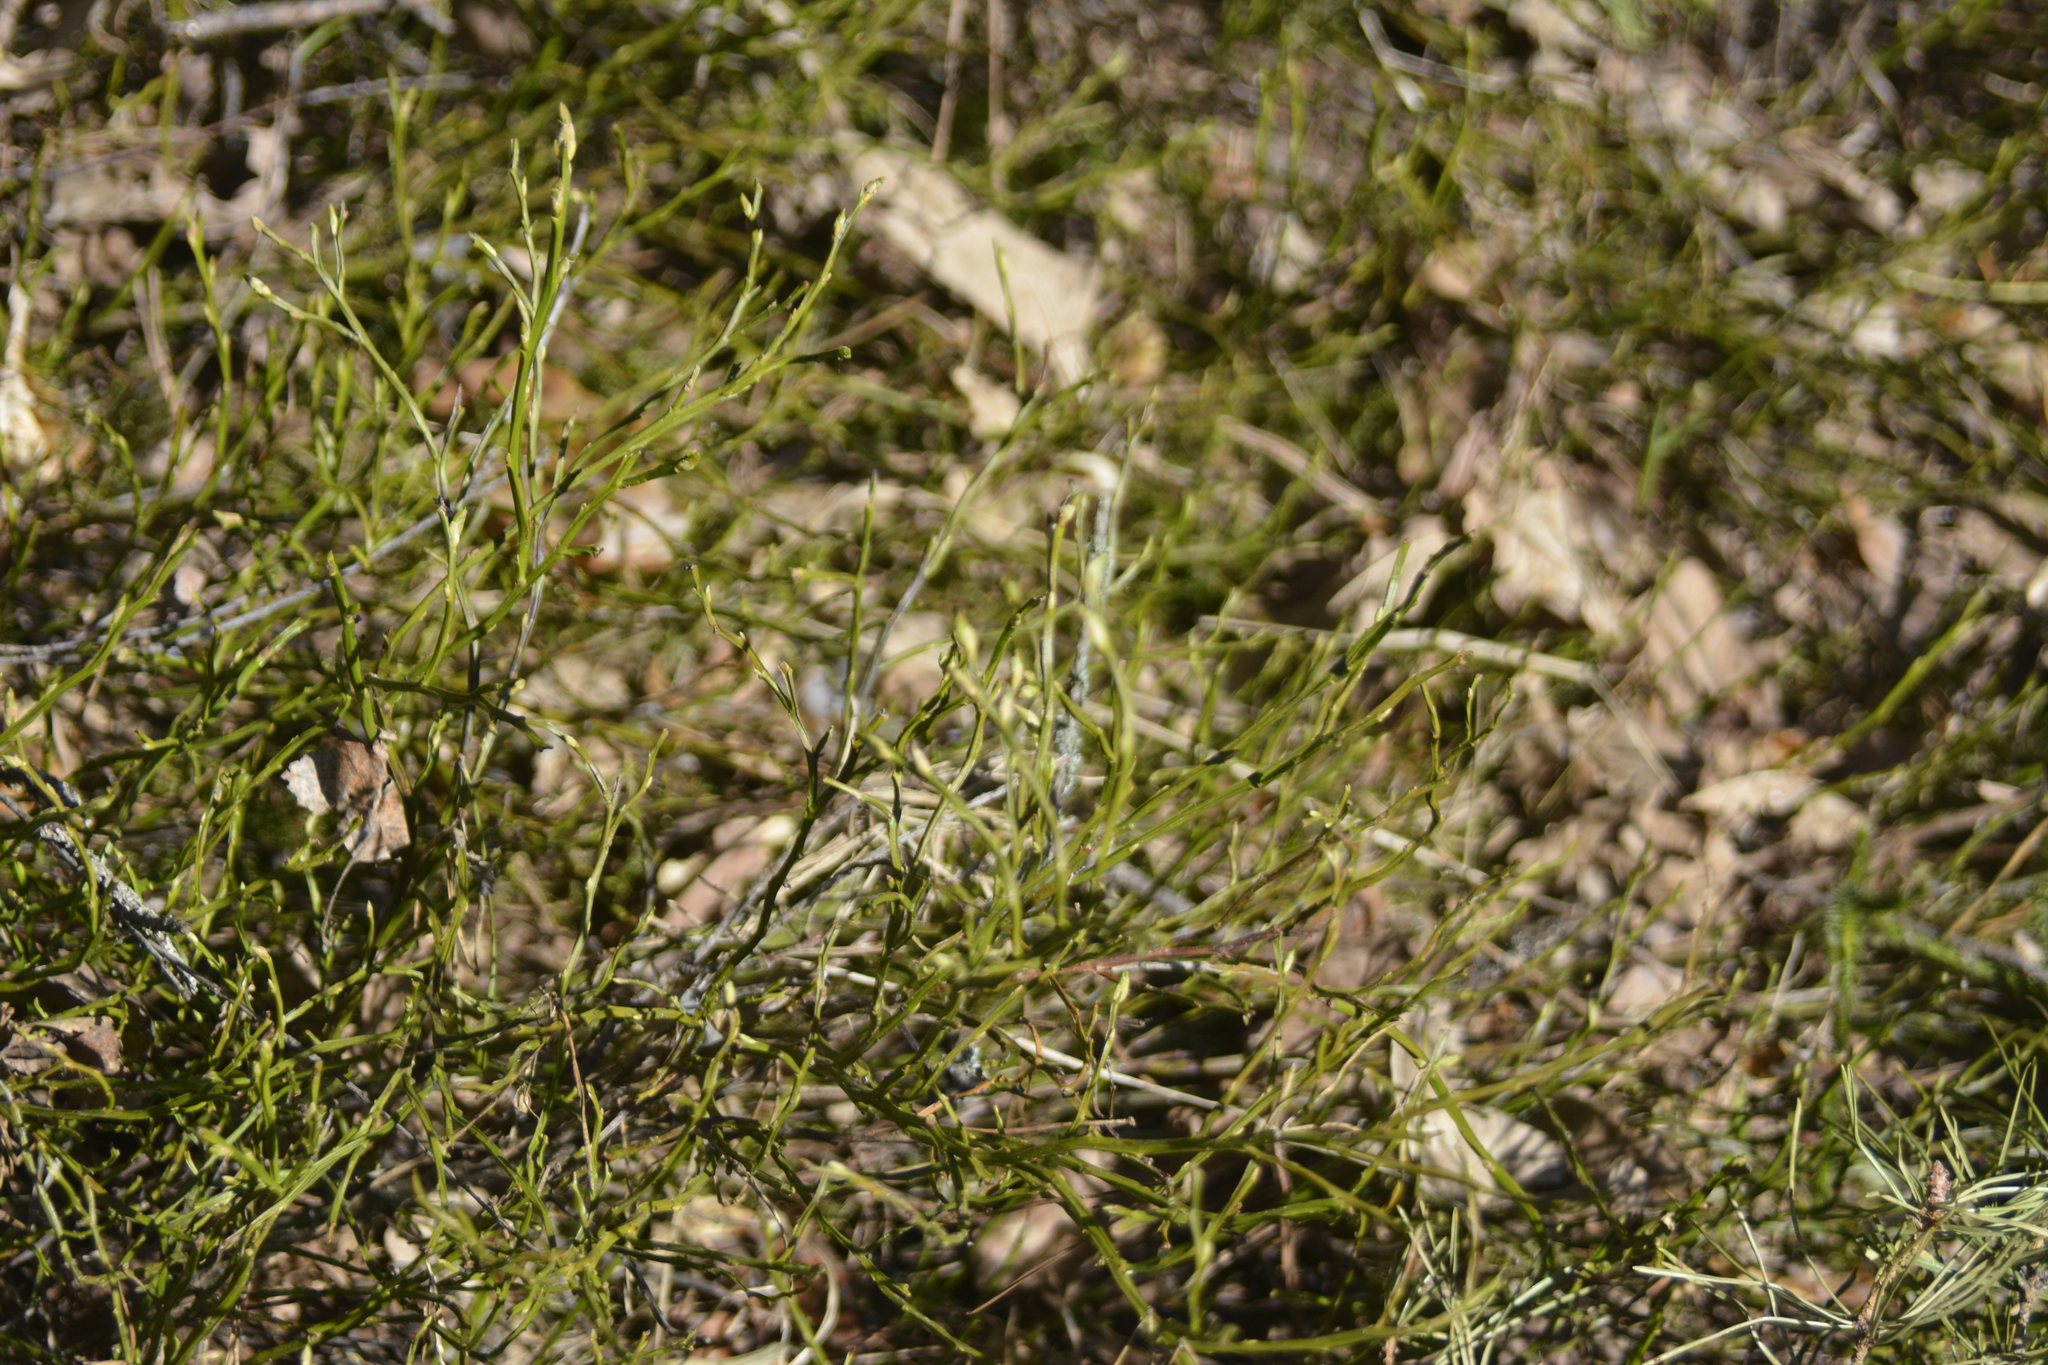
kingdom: Plantae
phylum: Tracheophyta
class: Magnoliopsida
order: Ericales
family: Ericaceae
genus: Vaccinium
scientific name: Vaccinium myrtillus
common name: Bilberry
